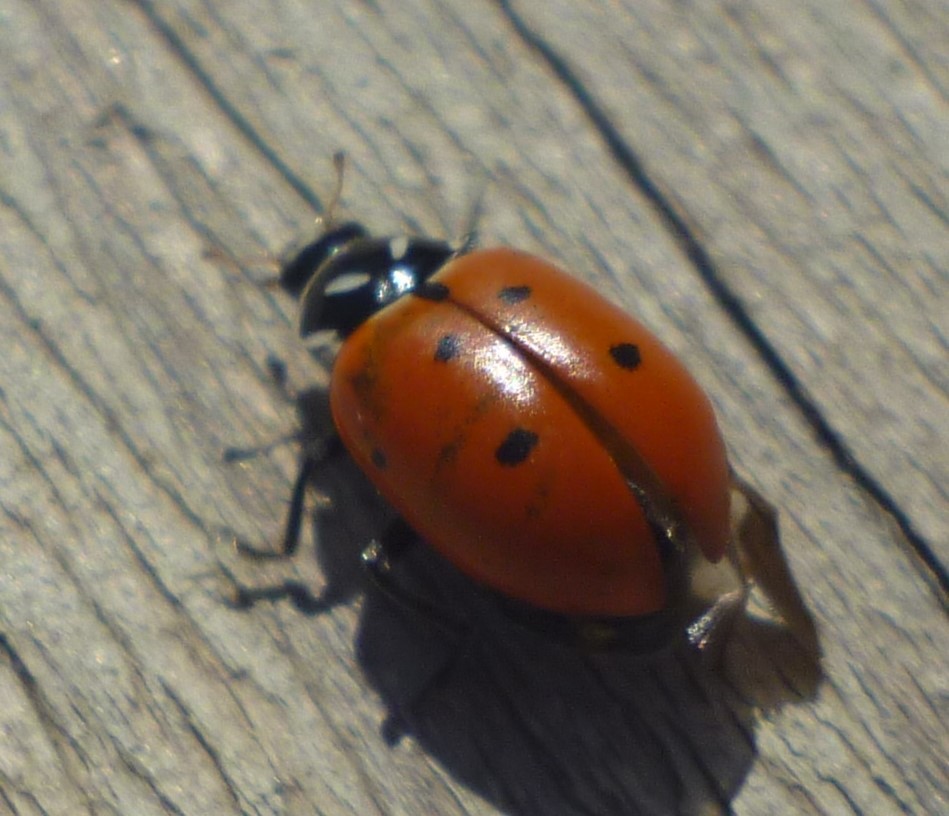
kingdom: Animalia
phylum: Arthropoda
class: Insecta
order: Coleoptera
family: Coccinellidae
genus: Hippodamia
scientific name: Hippodamia convergens
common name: Convergent lady beetle
